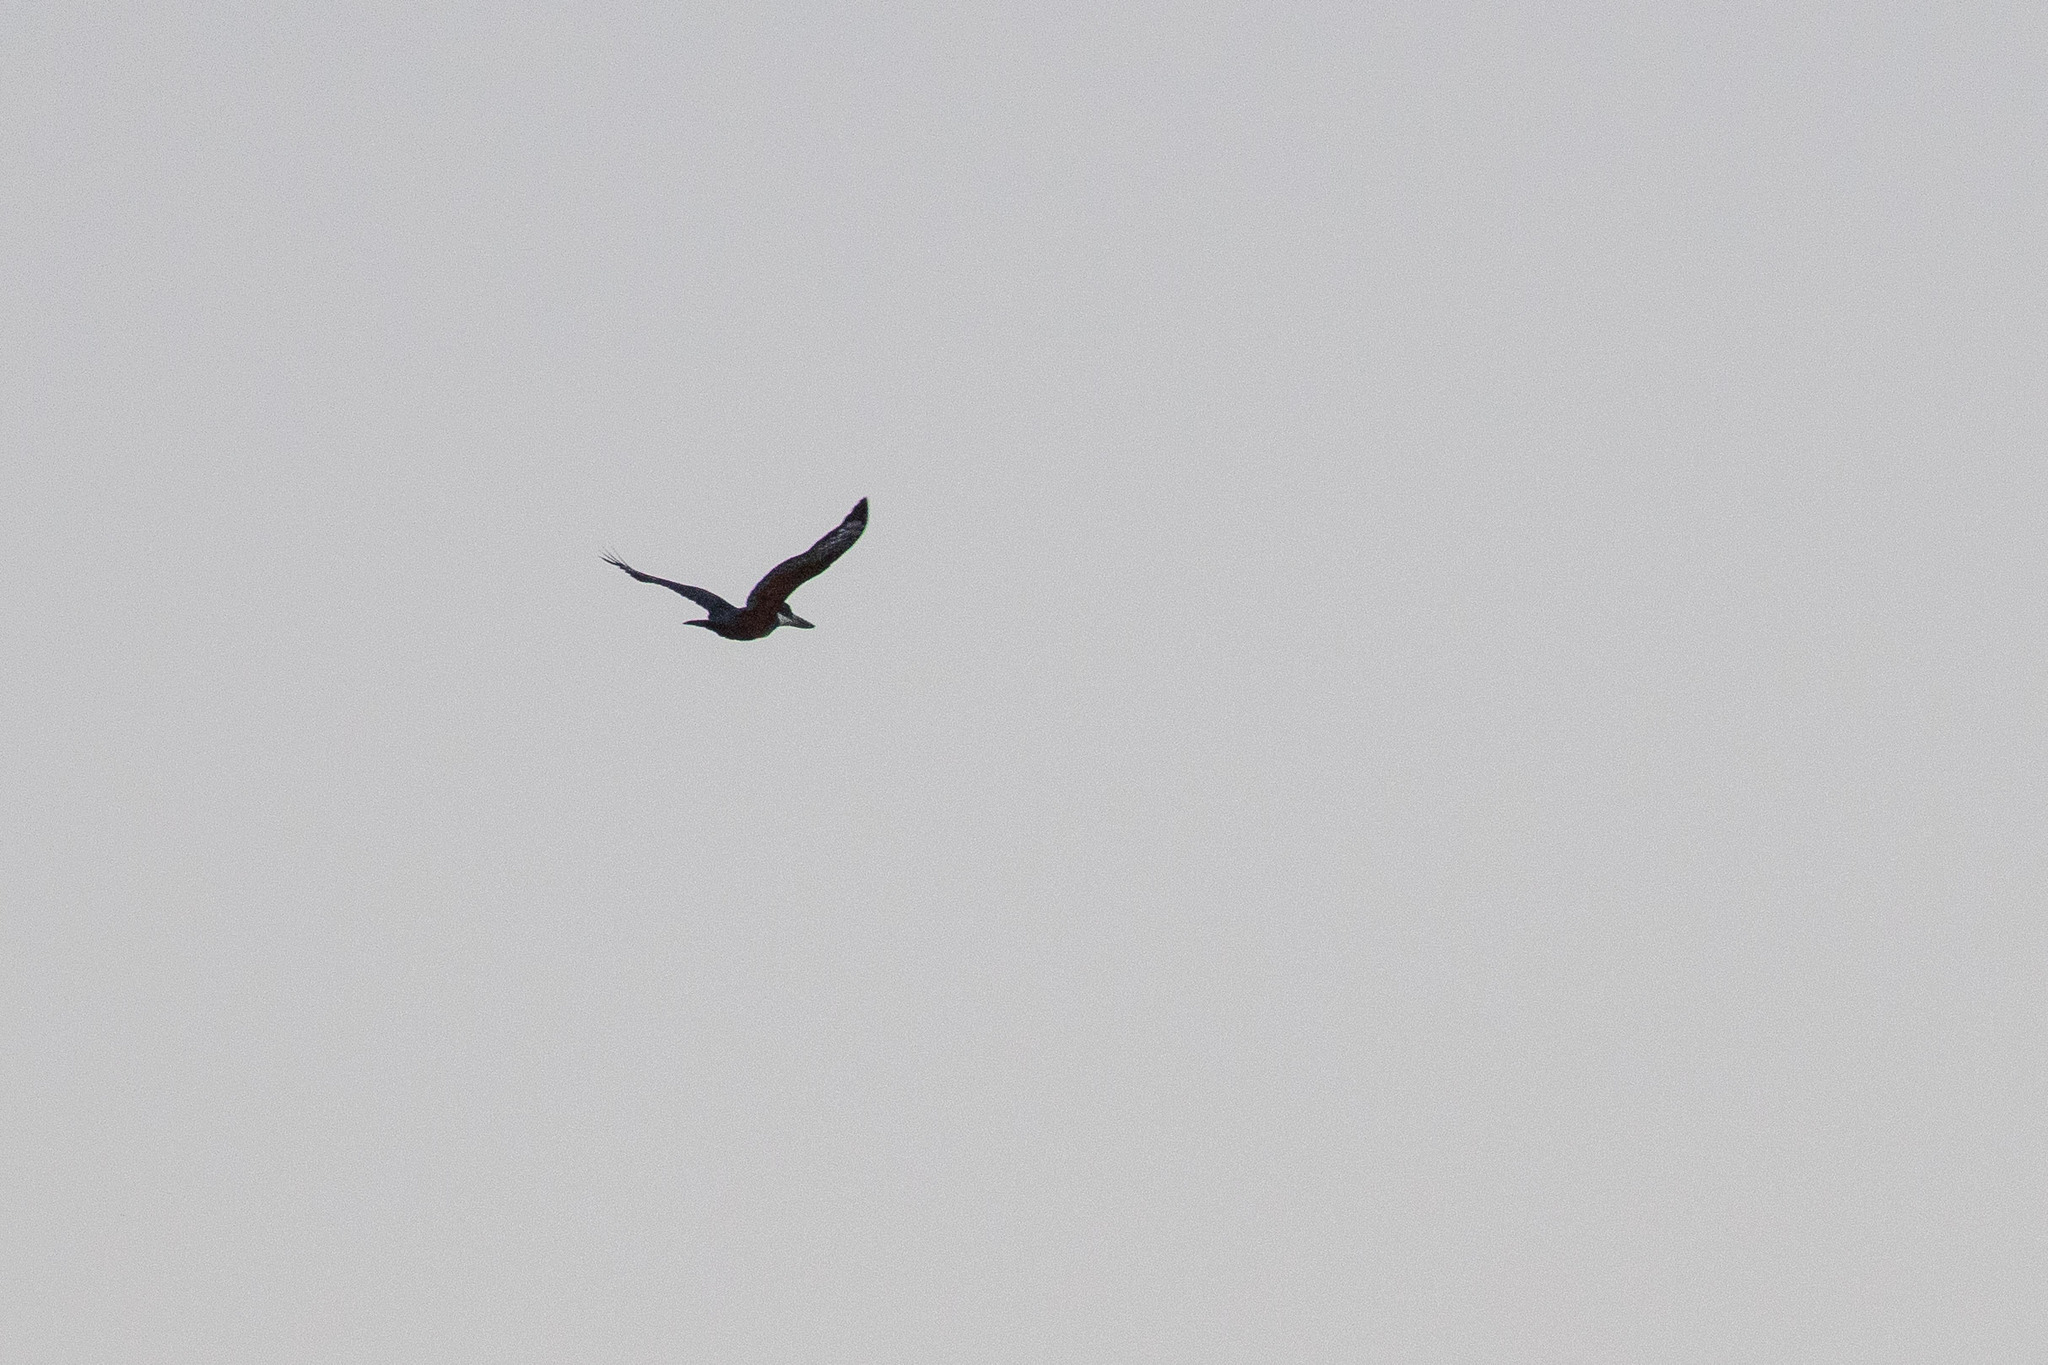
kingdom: Animalia
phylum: Chordata
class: Aves
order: Coraciiformes
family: Alcedinidae
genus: Megaceryle
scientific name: Megaceryle torquata
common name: Ringed kingfisher
